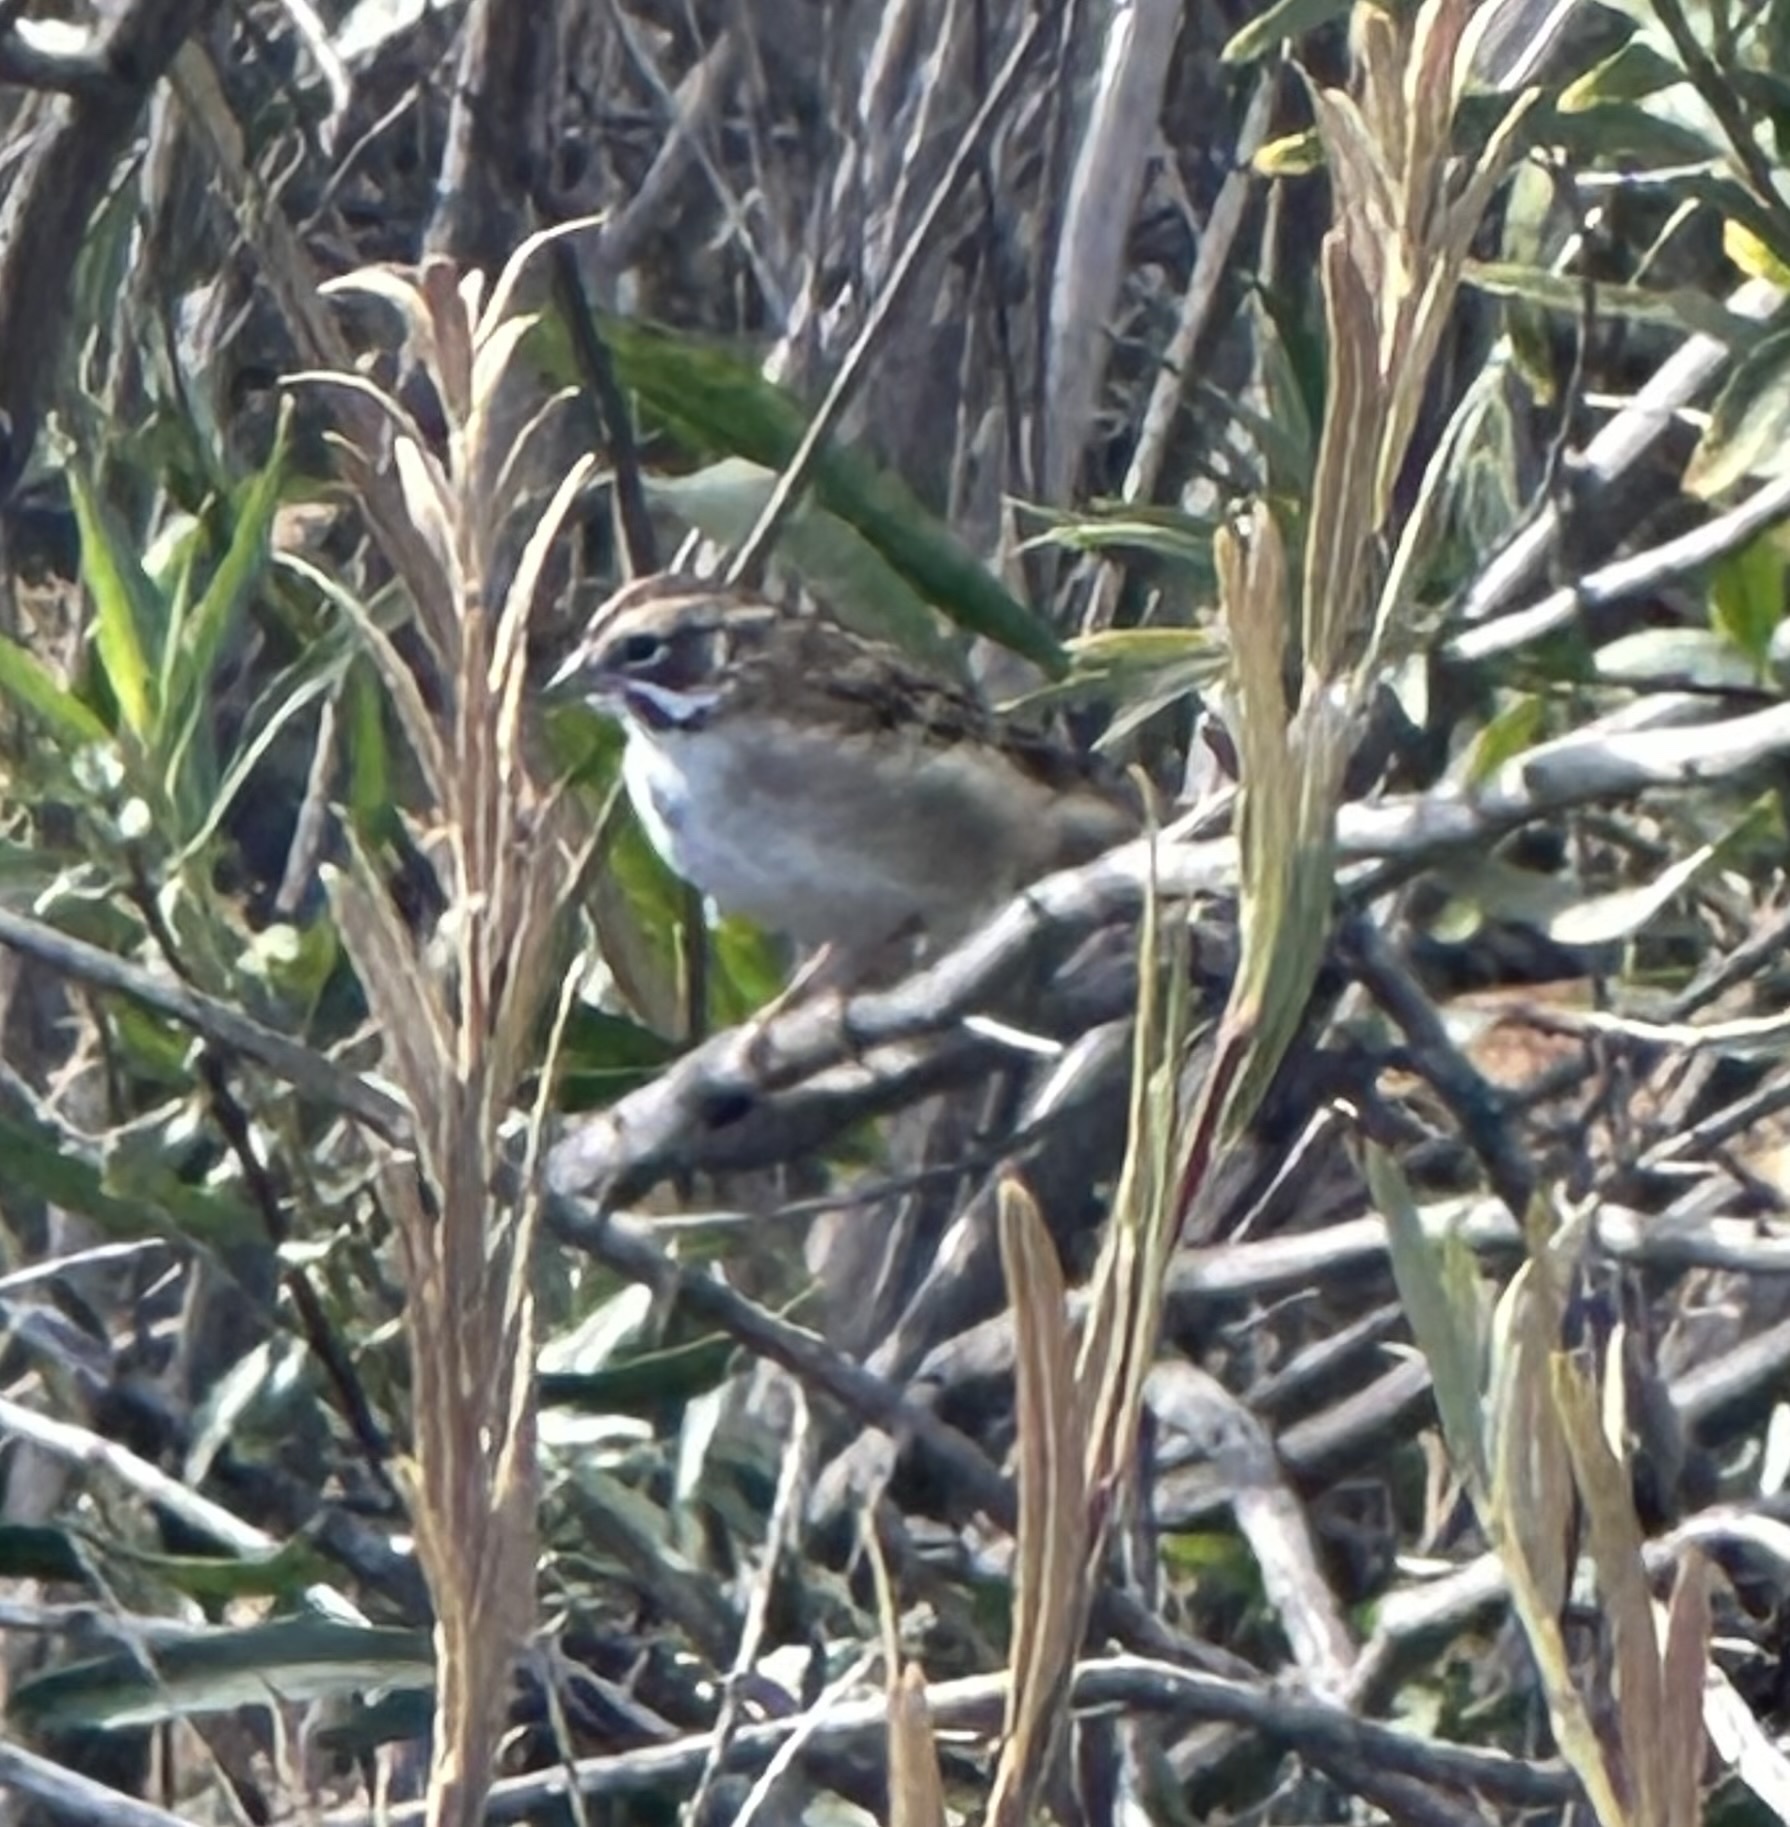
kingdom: Animalia
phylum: Chordata
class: Aves
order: Passeriformes
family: Passerellidae
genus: Chondestes
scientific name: Chondestes grammacus
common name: Lark sparrow
